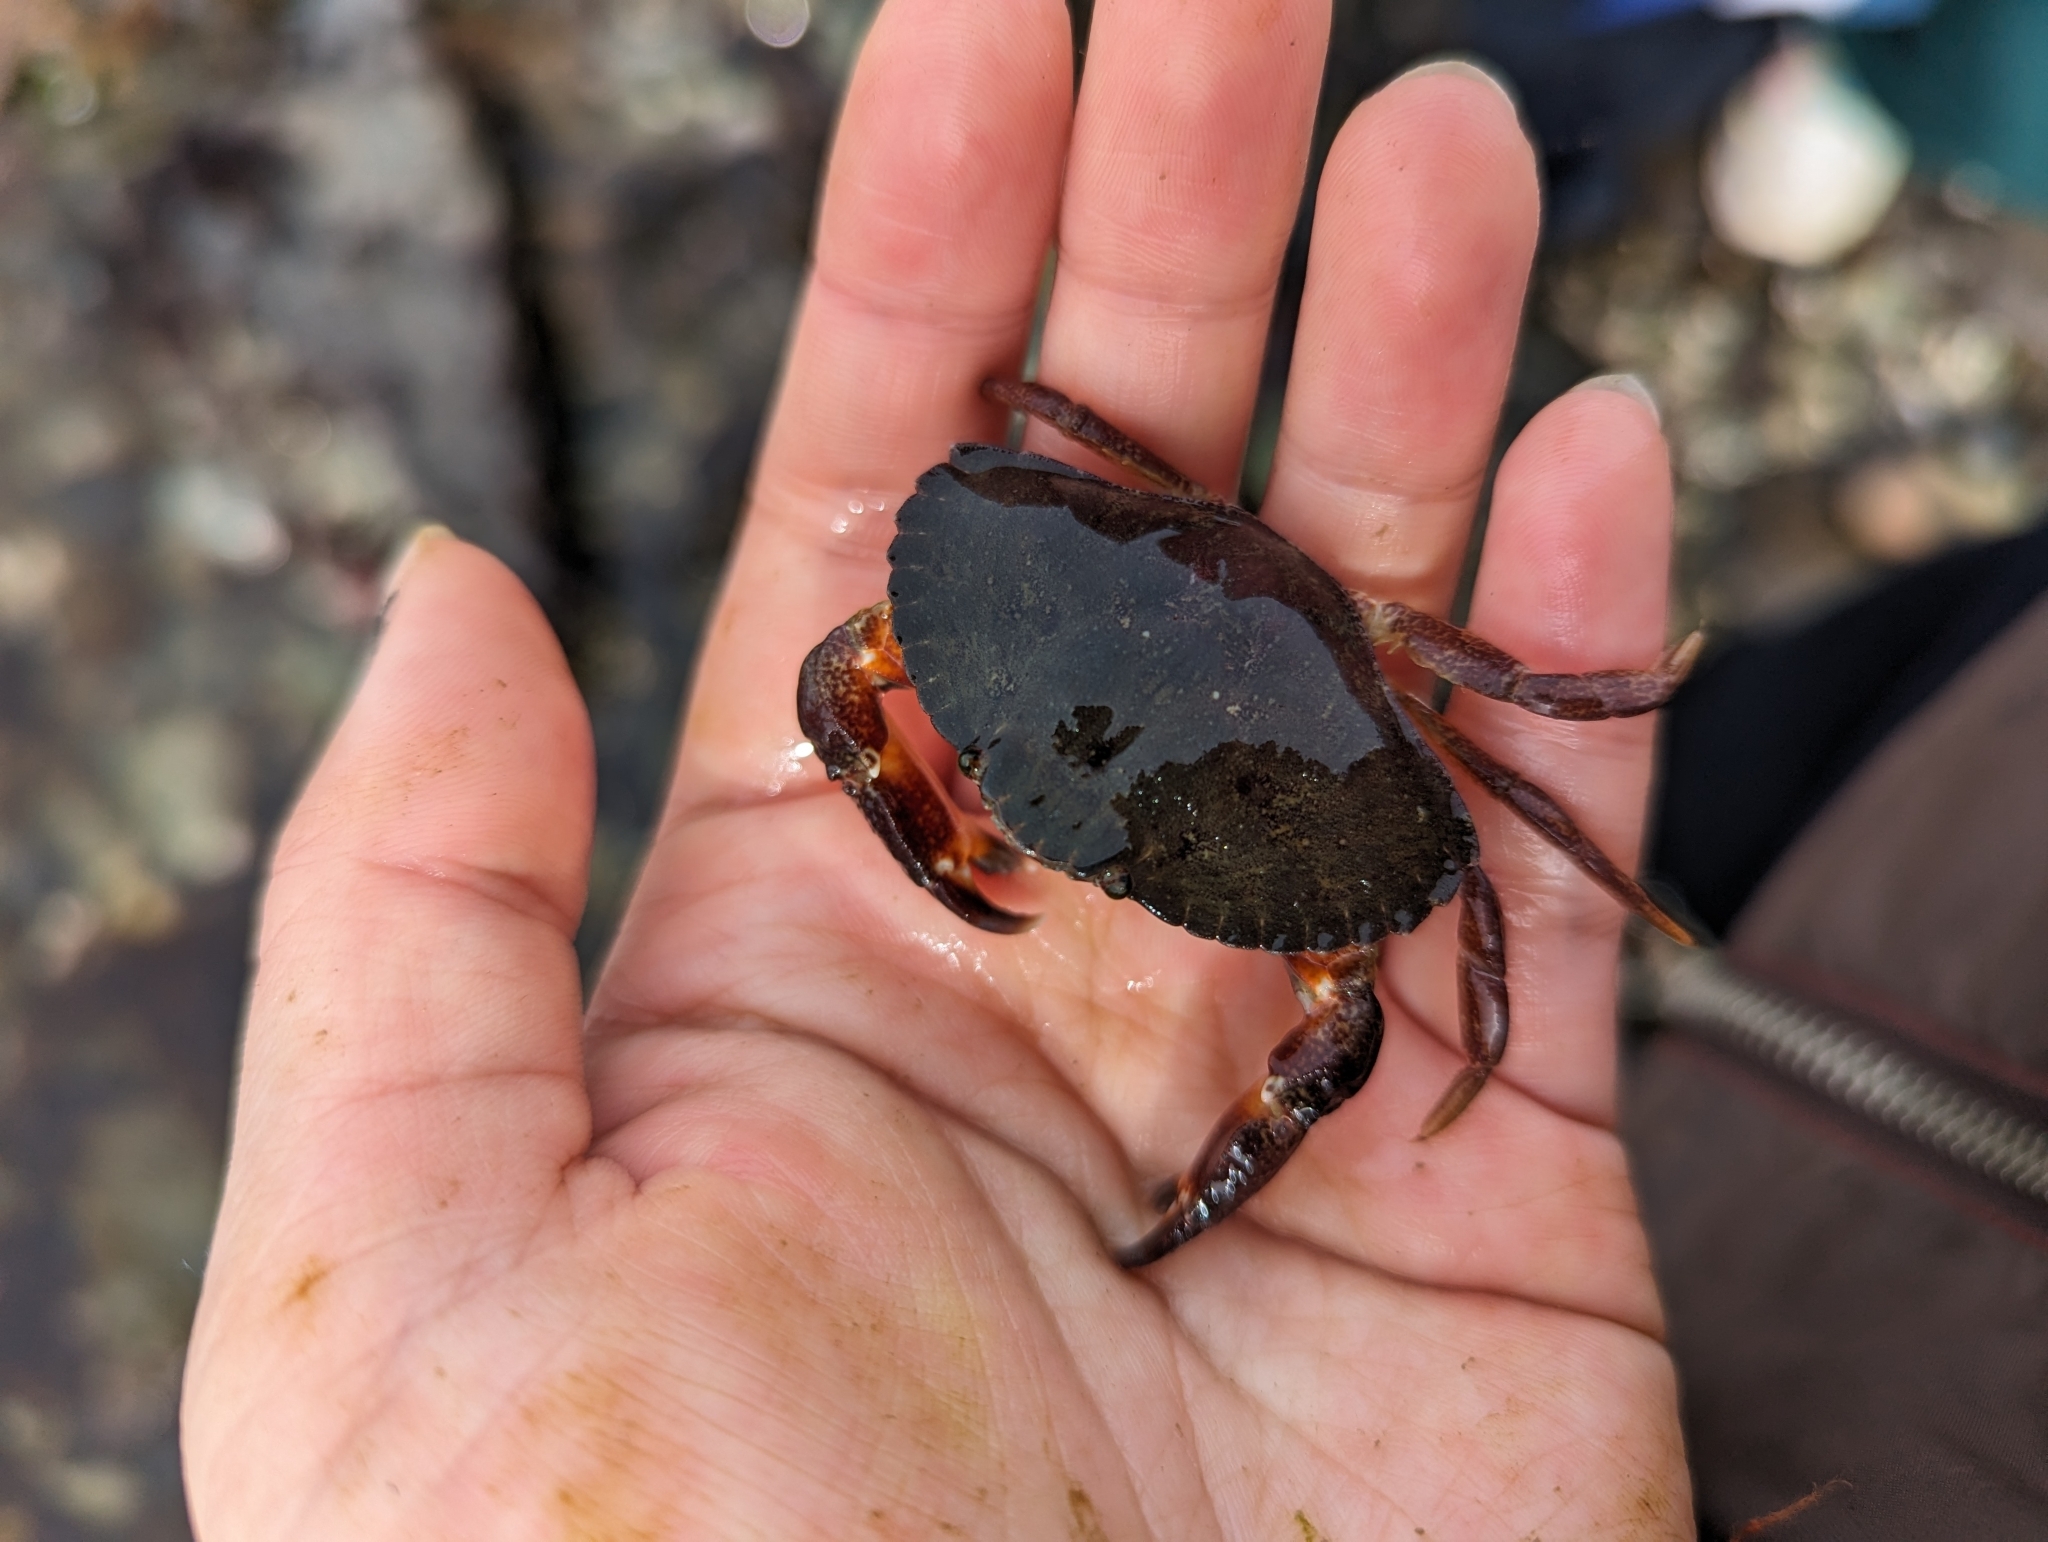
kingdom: Animalia
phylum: Arthropoda
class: Malacostraca
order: Decapoda
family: Cancridae
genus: Cancer
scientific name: Cancer productus
